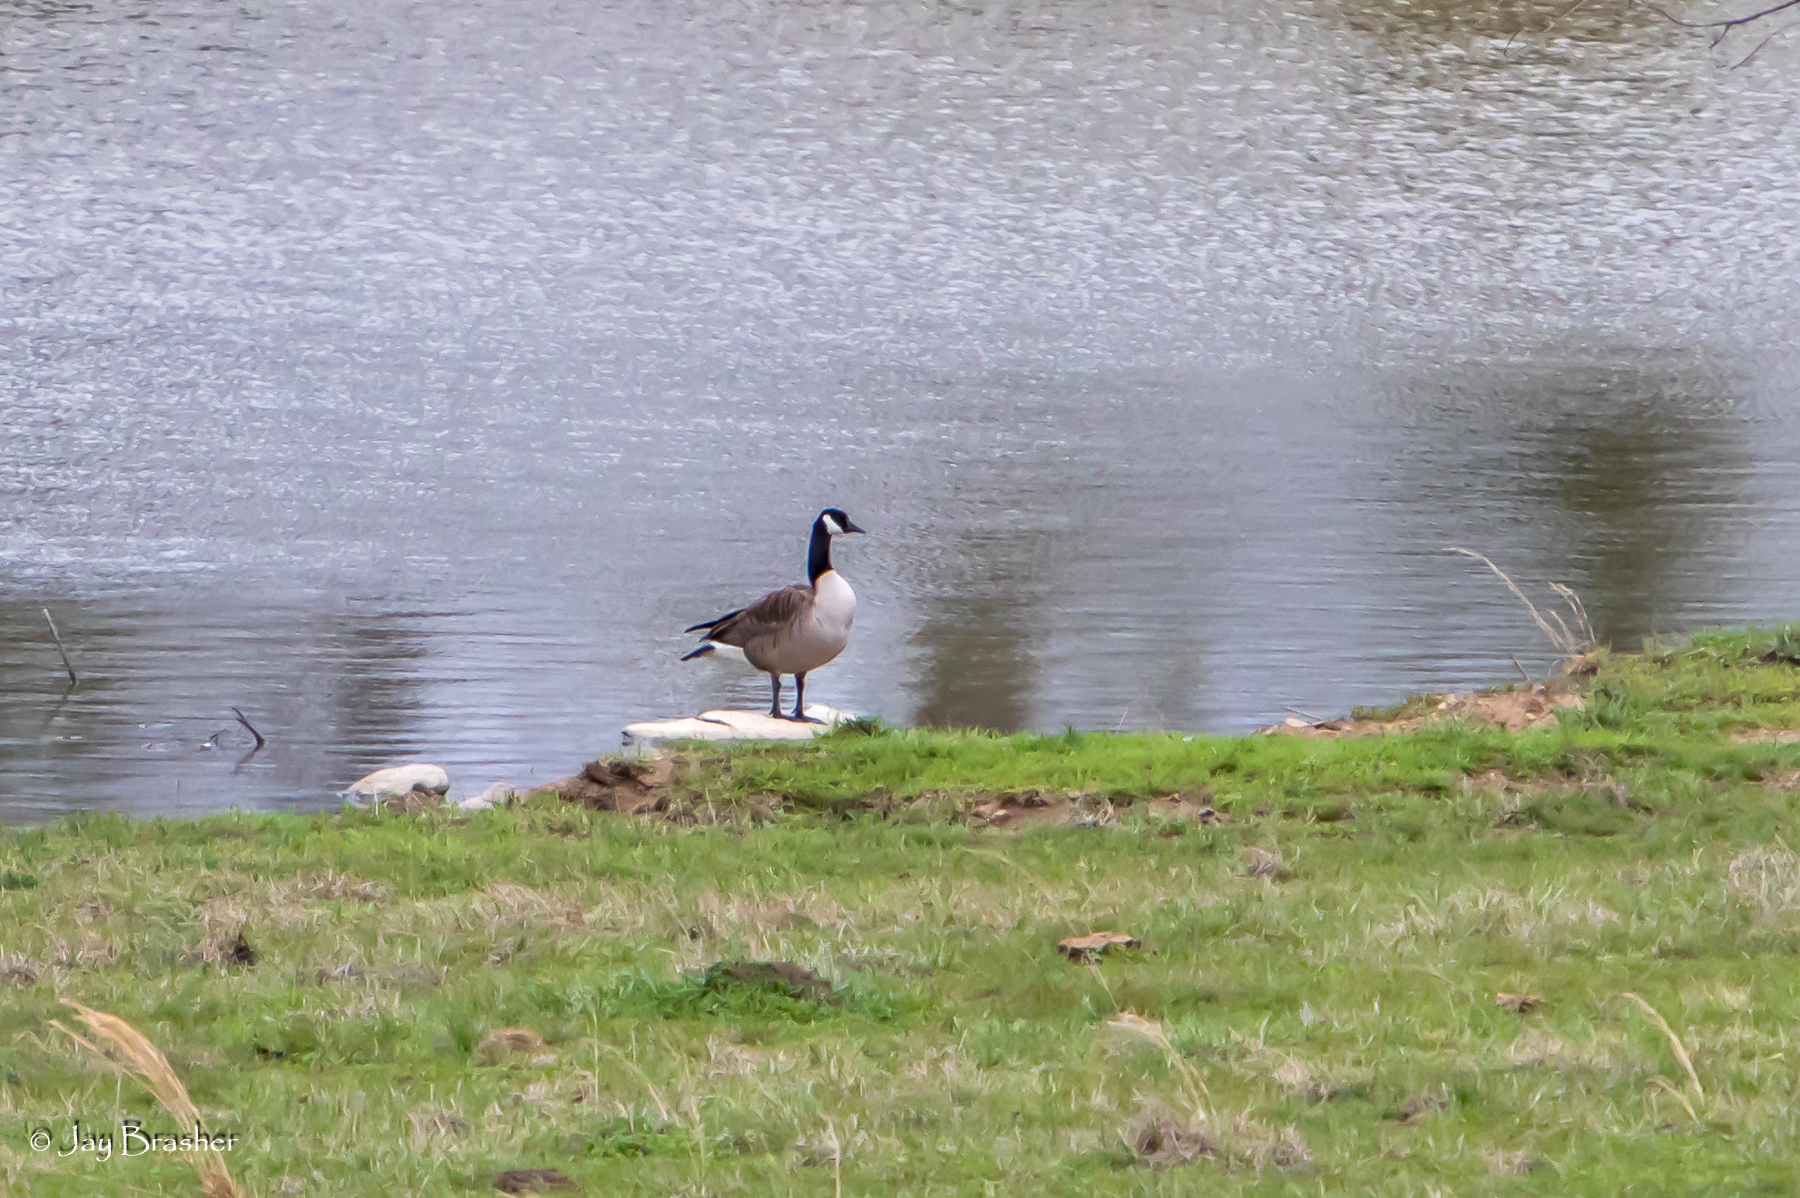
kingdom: Animalia
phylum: Chordata
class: Aves
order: Anseriformes
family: Anatidae
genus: Branta
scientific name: Branta canadensis
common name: Canada goose
